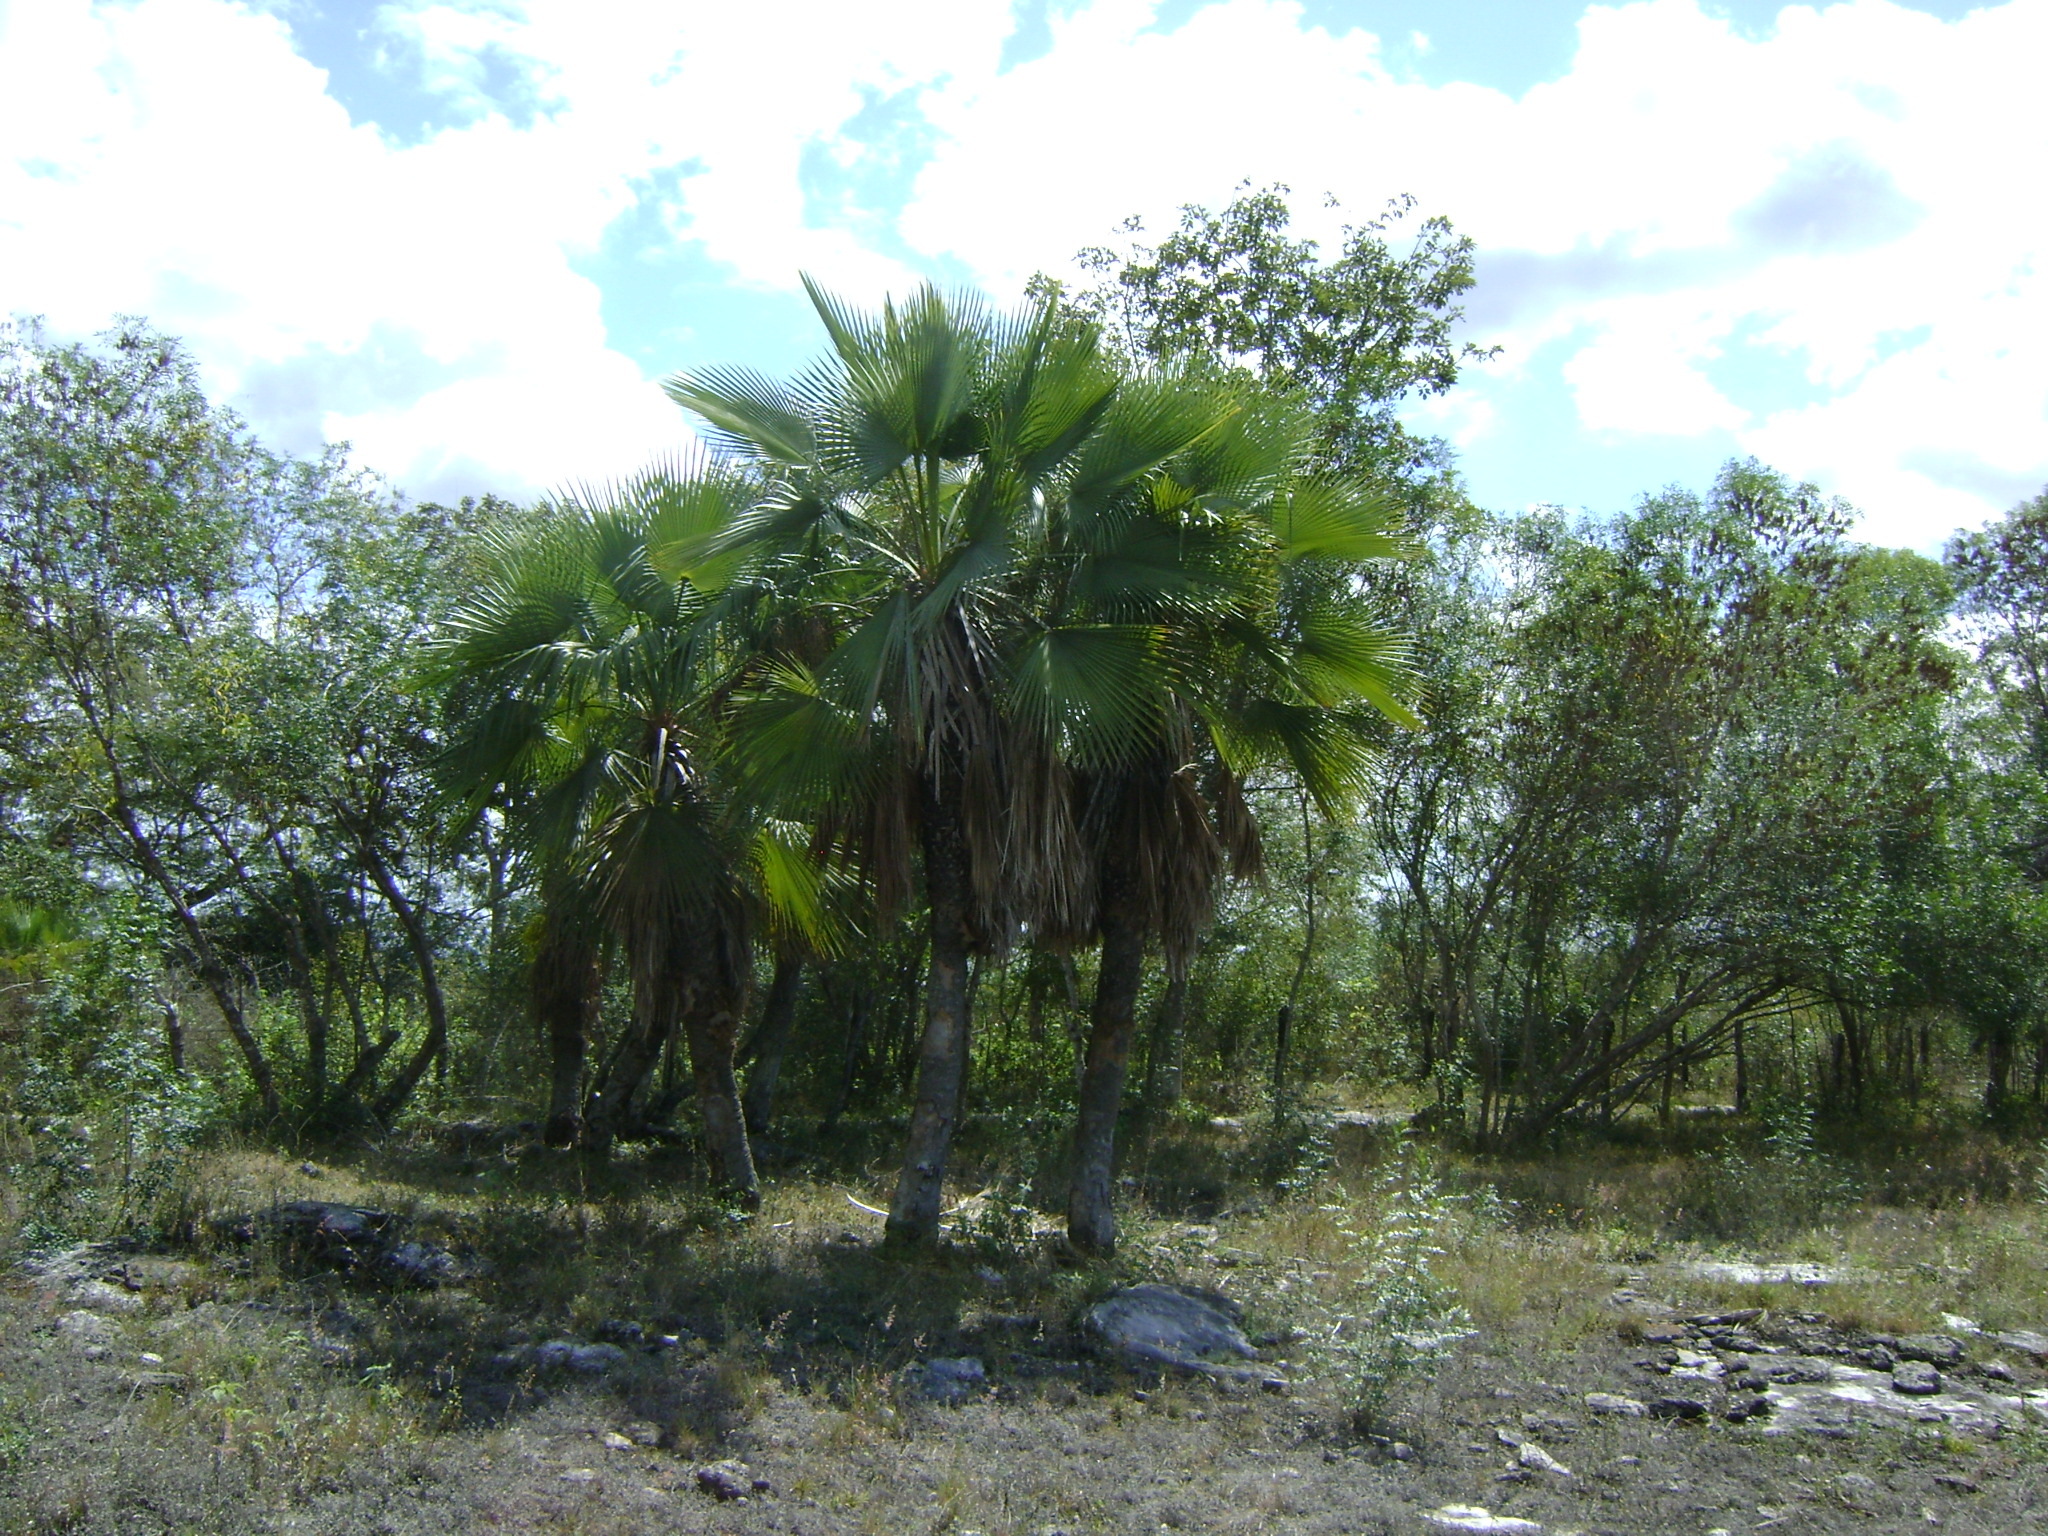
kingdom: Plantae
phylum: Tracheophyta
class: Liliopsida
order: Arecales
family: Arecaceae
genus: Brahea
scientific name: Brahea dulcis
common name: Apak palm
